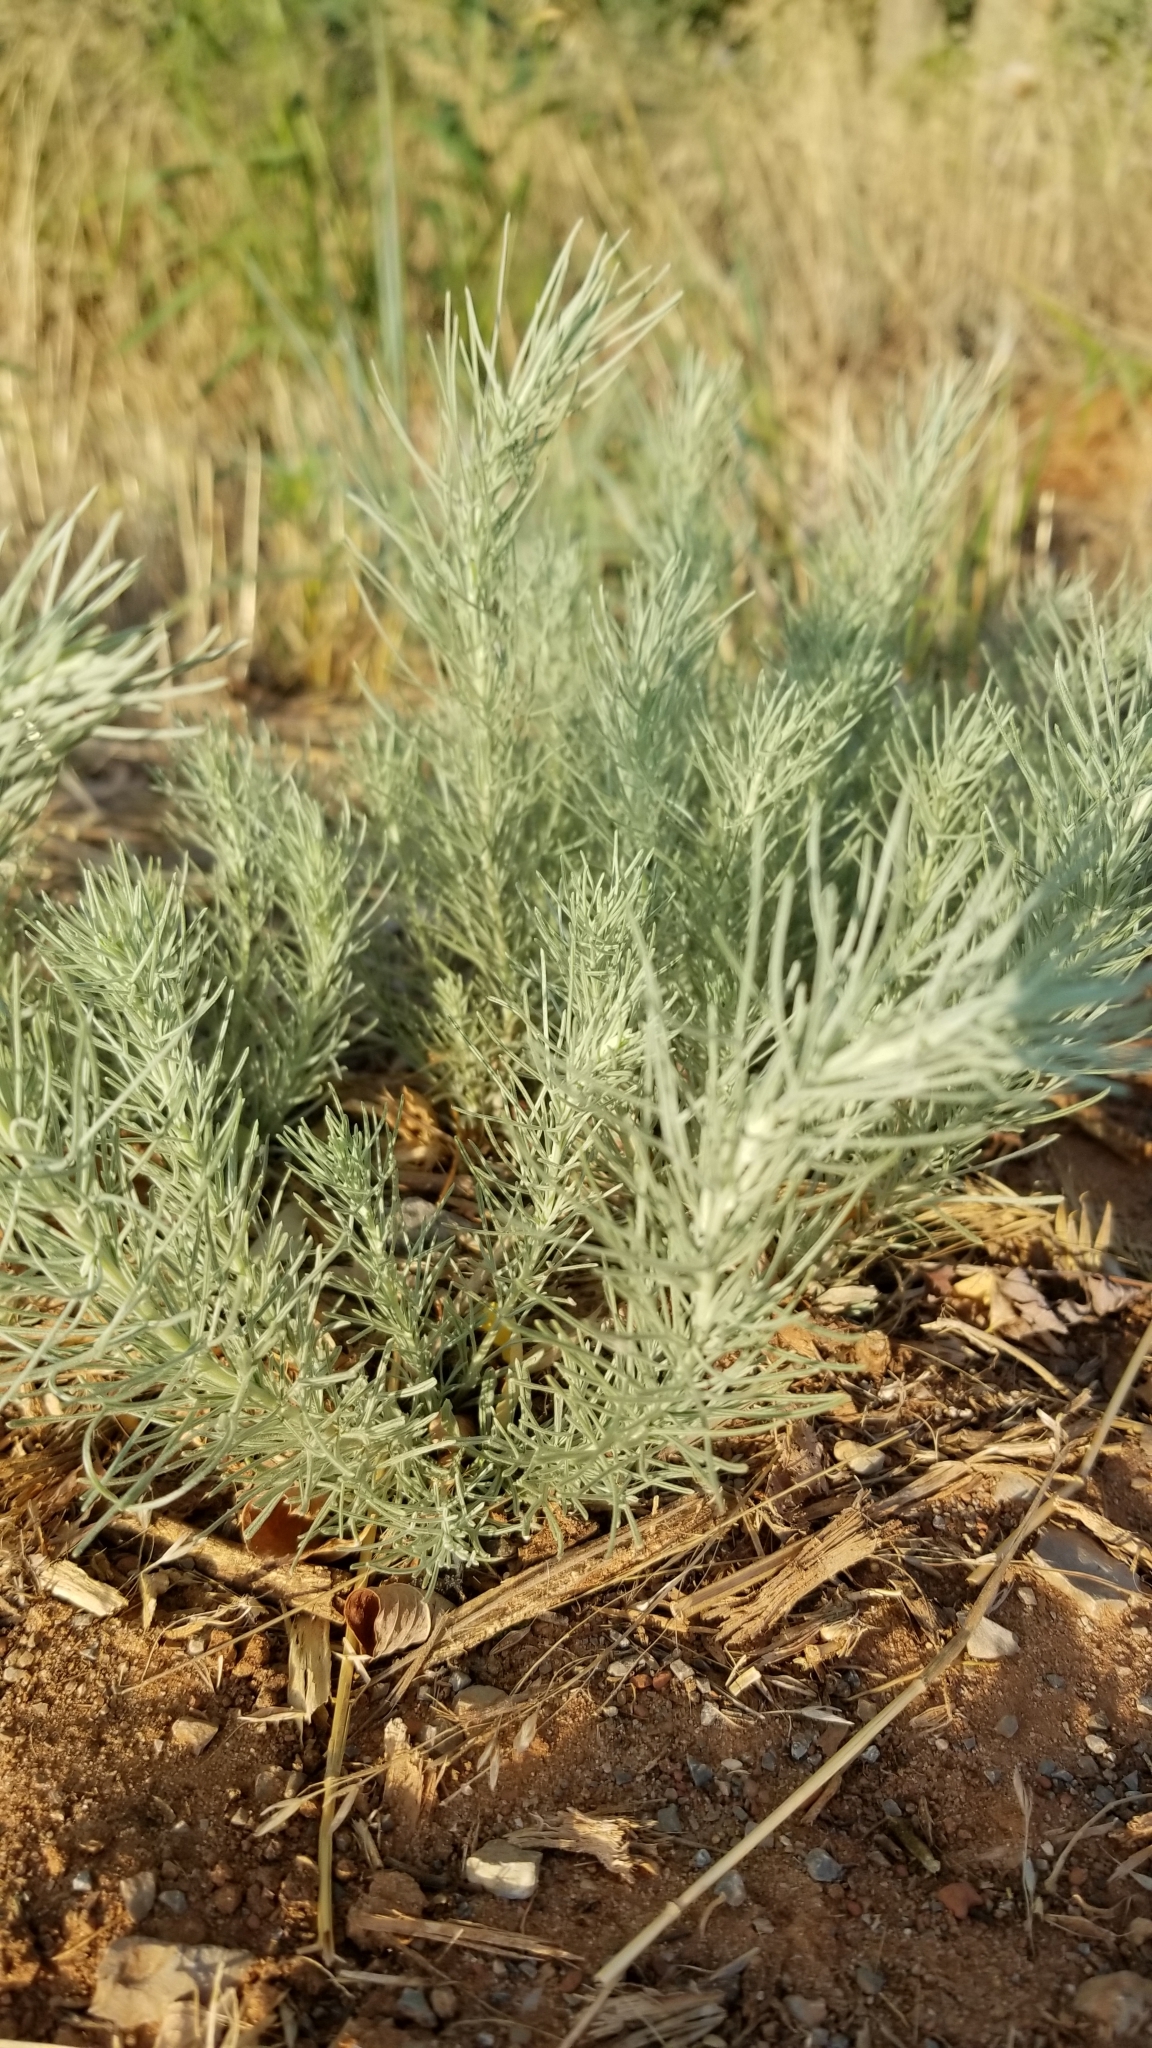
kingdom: Plantae
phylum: Tracheophyta
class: Magnoliopsida
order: Asterales
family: Asteraceae
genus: Artemisia
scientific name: Artemisia filifolia
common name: Sand-sage
